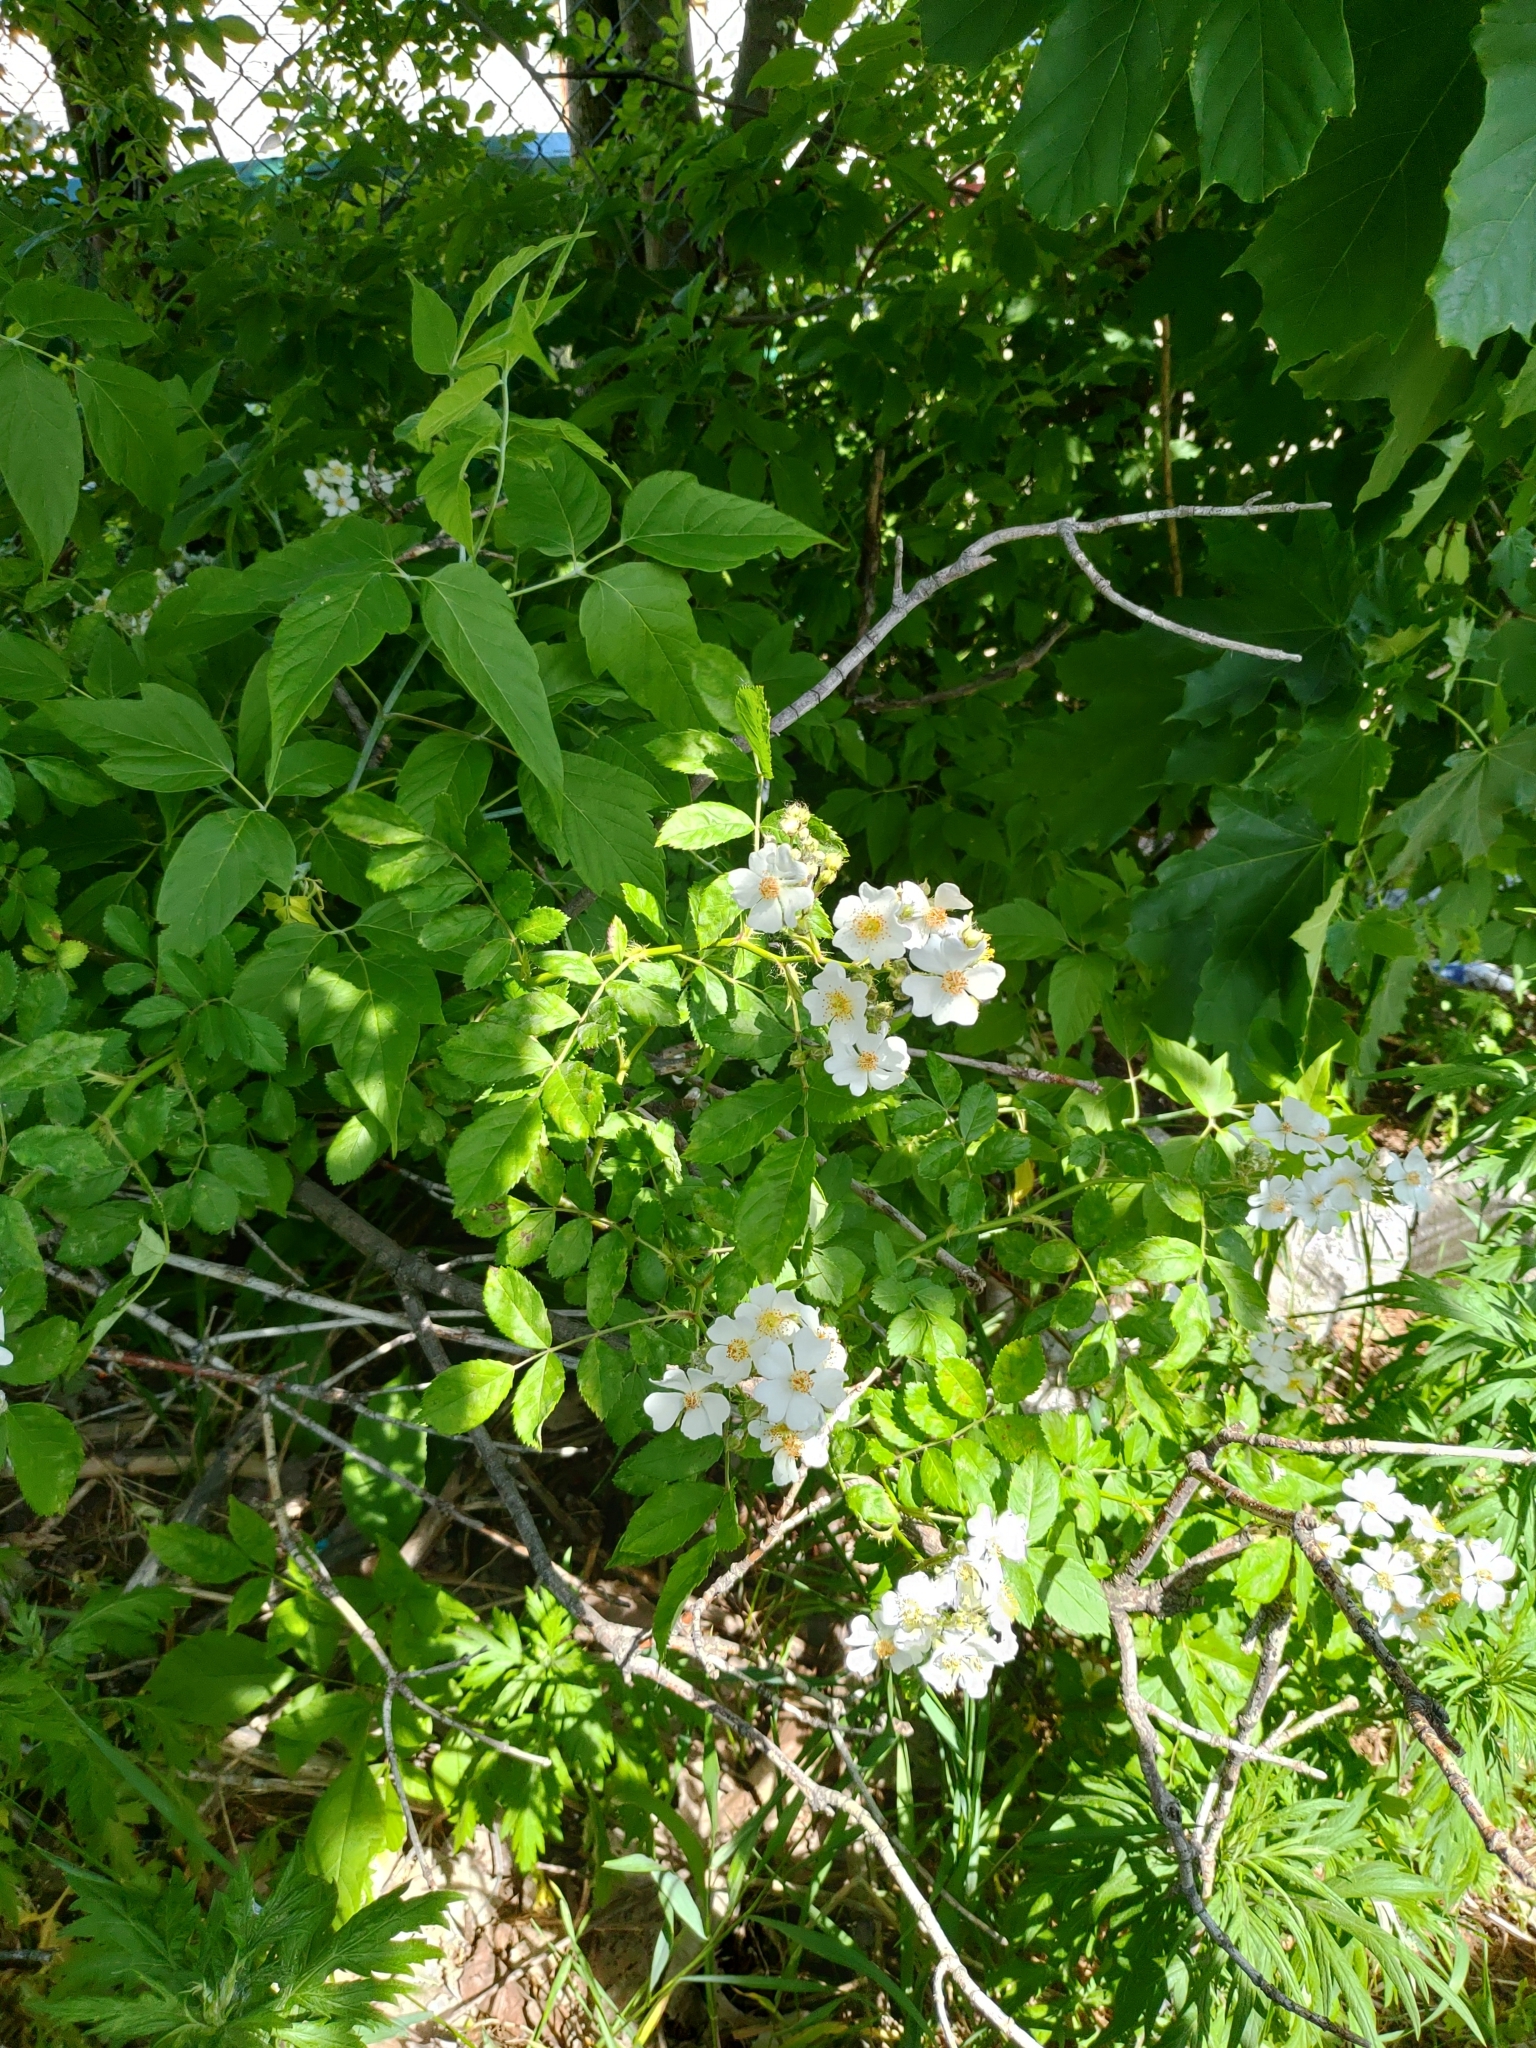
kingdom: Plantae
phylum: Tracheophyta
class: Magnoliopsida
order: Rosales
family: Rosaceae
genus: Rosa
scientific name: Rosa multiflora
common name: Multiflora rose
